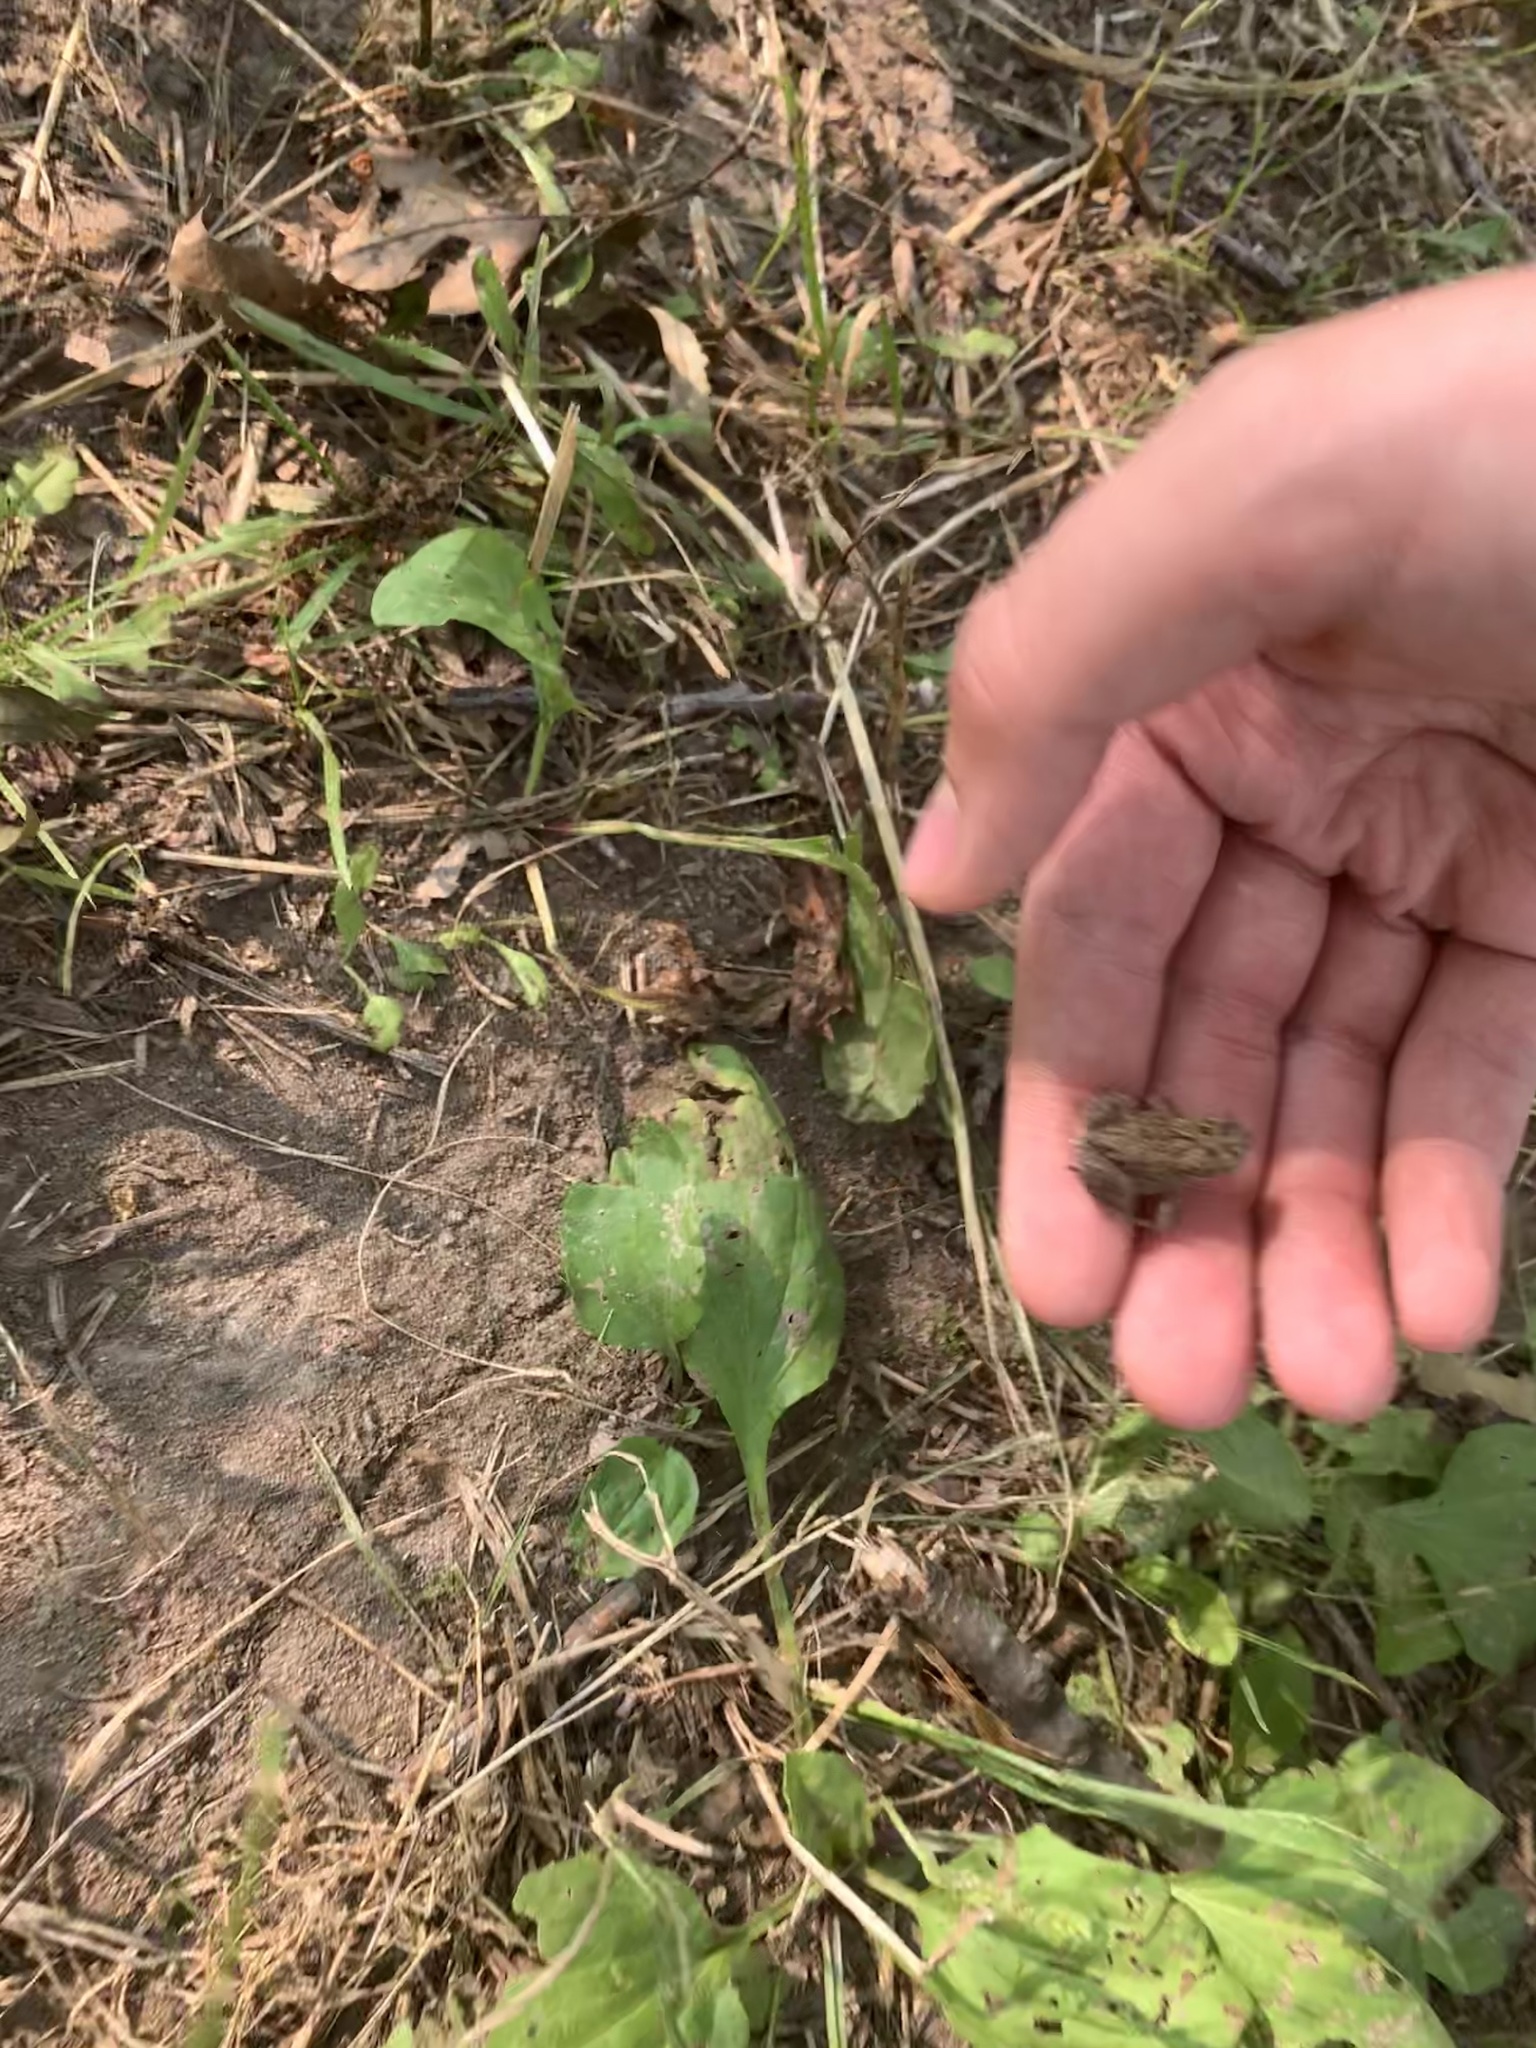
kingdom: Animalia
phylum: Chordata
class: Amphibia
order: Anura
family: Bufonidae
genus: Anaxyrus
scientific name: Anaxyrus americanus
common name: American toad
